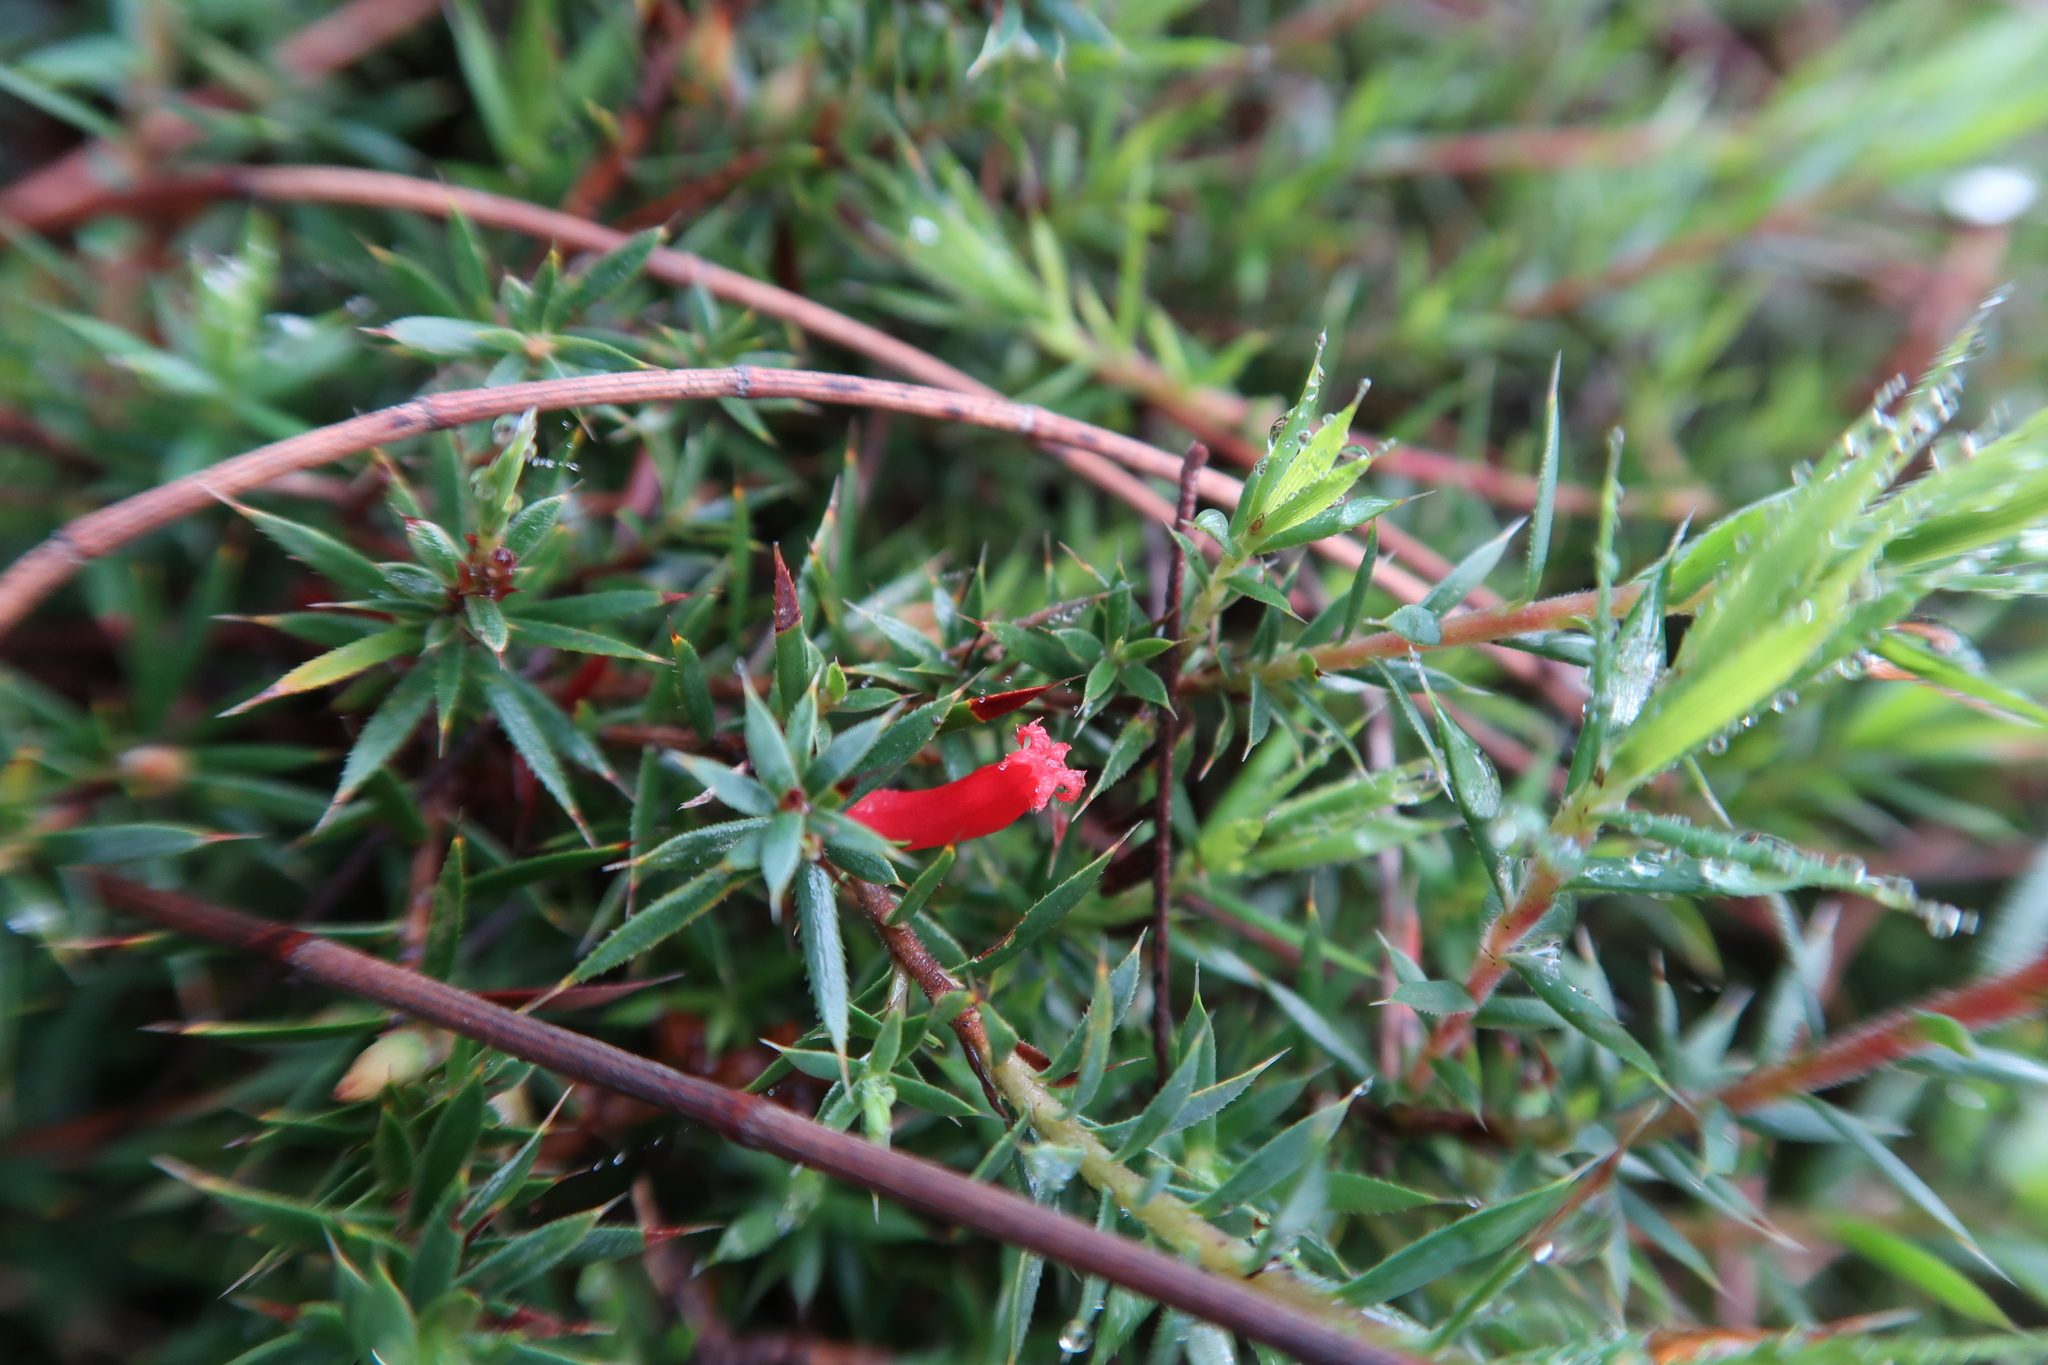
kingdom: Plantae
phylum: Tracheophyta
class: Magnoliopsida
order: Ericales
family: Ericaceae
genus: Styphelia
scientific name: Styphelia humifusa
